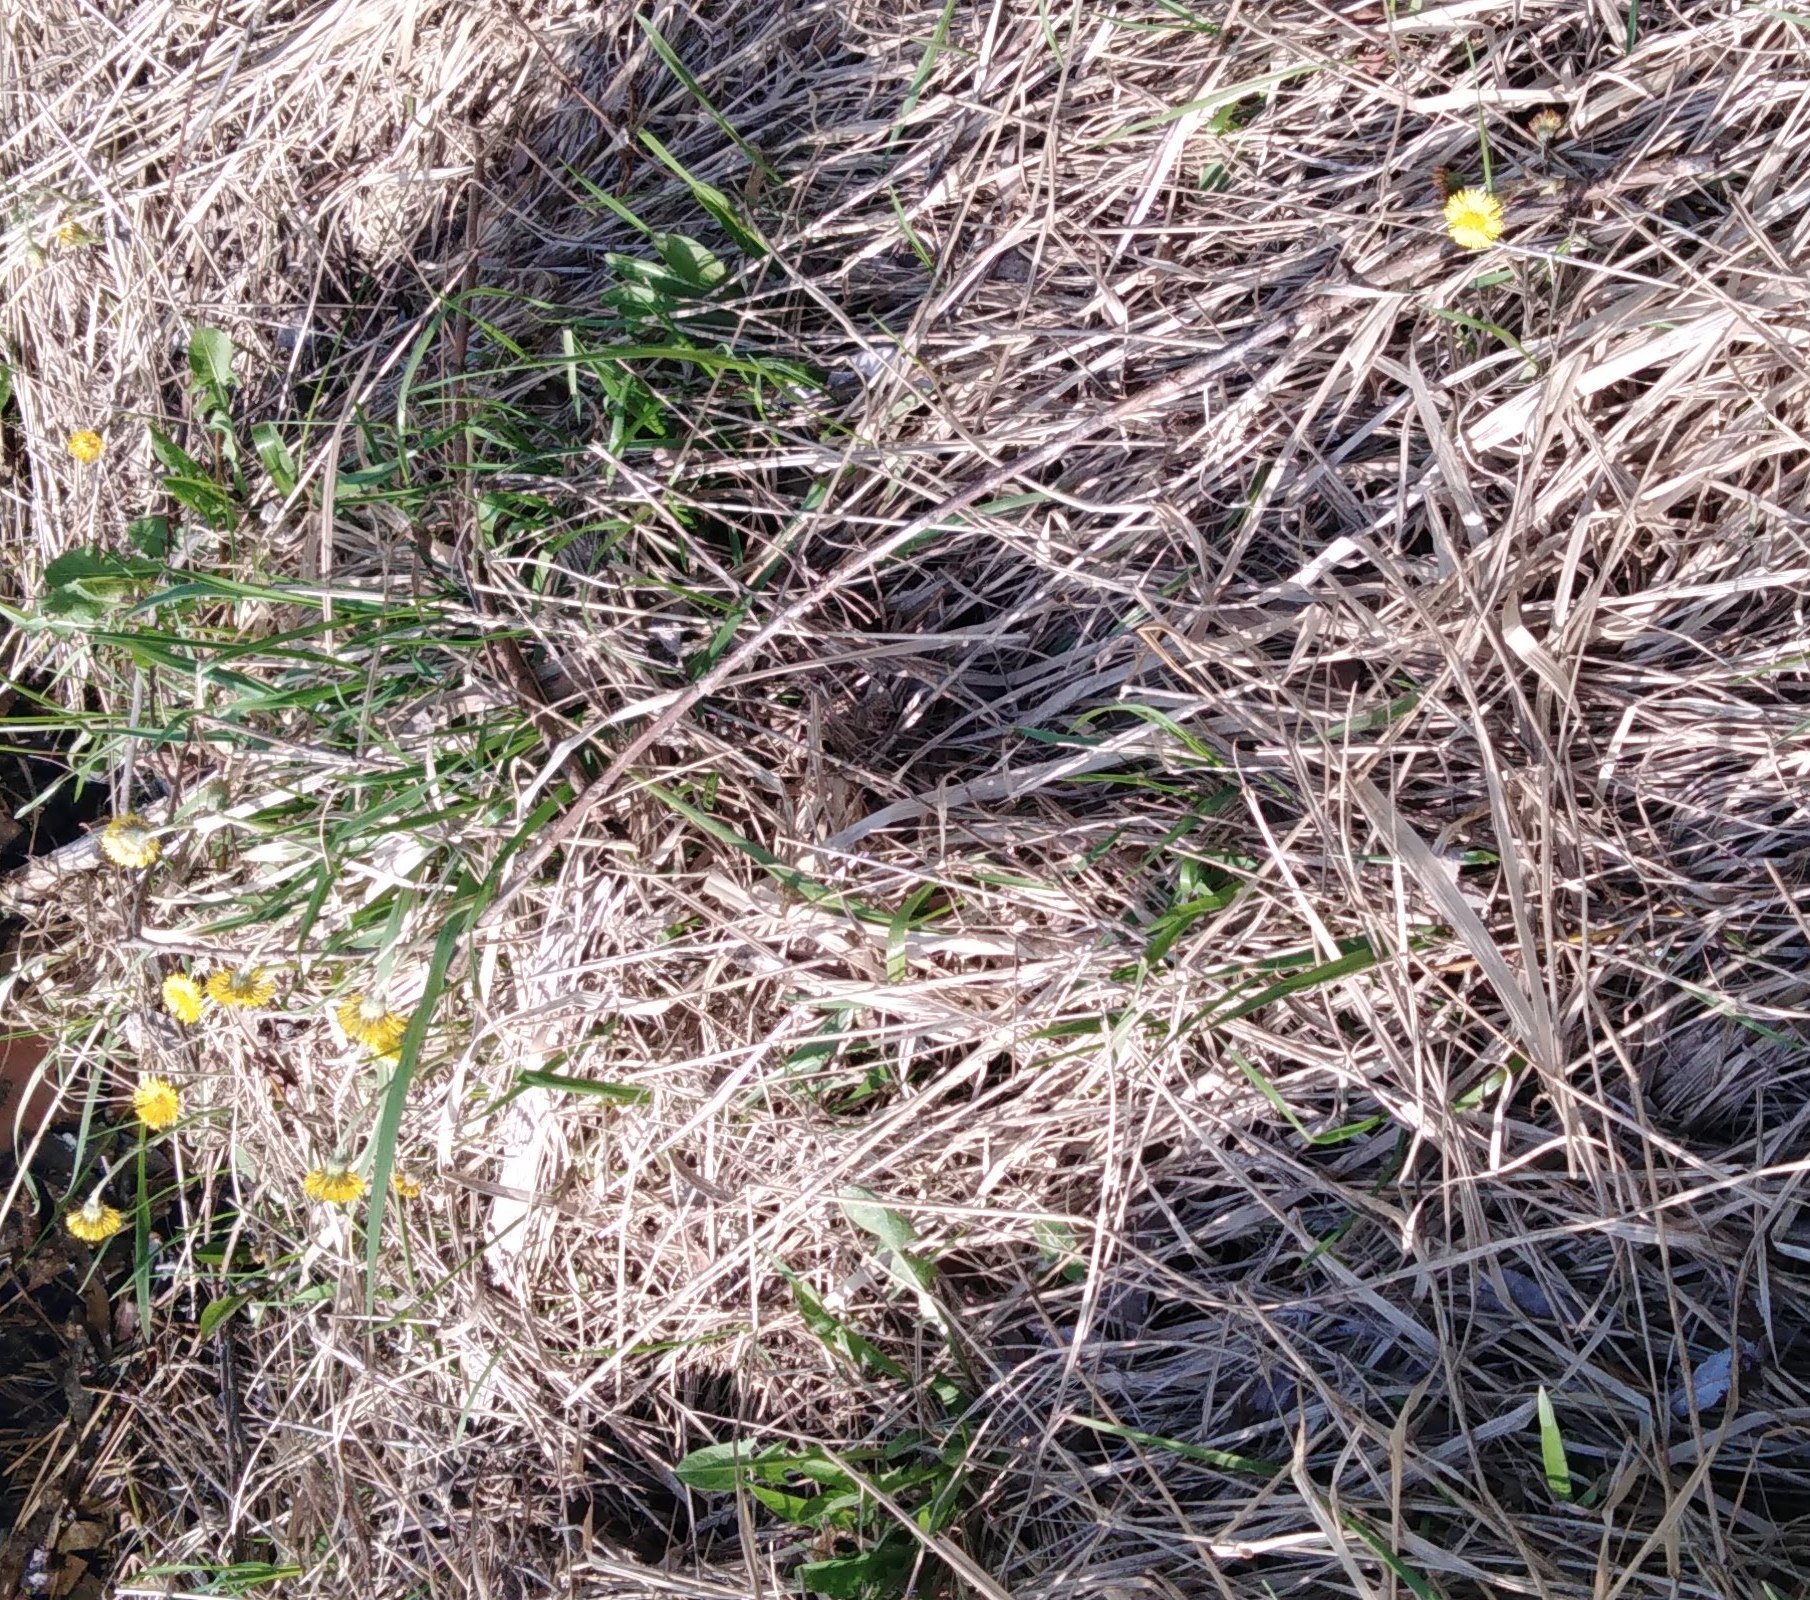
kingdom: Plantae
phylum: Tracheophyta
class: Magnoliopsida
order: Asterales
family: Asteraceae
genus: Tussilago
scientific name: Tussilago farfara
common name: Coltsfoot
